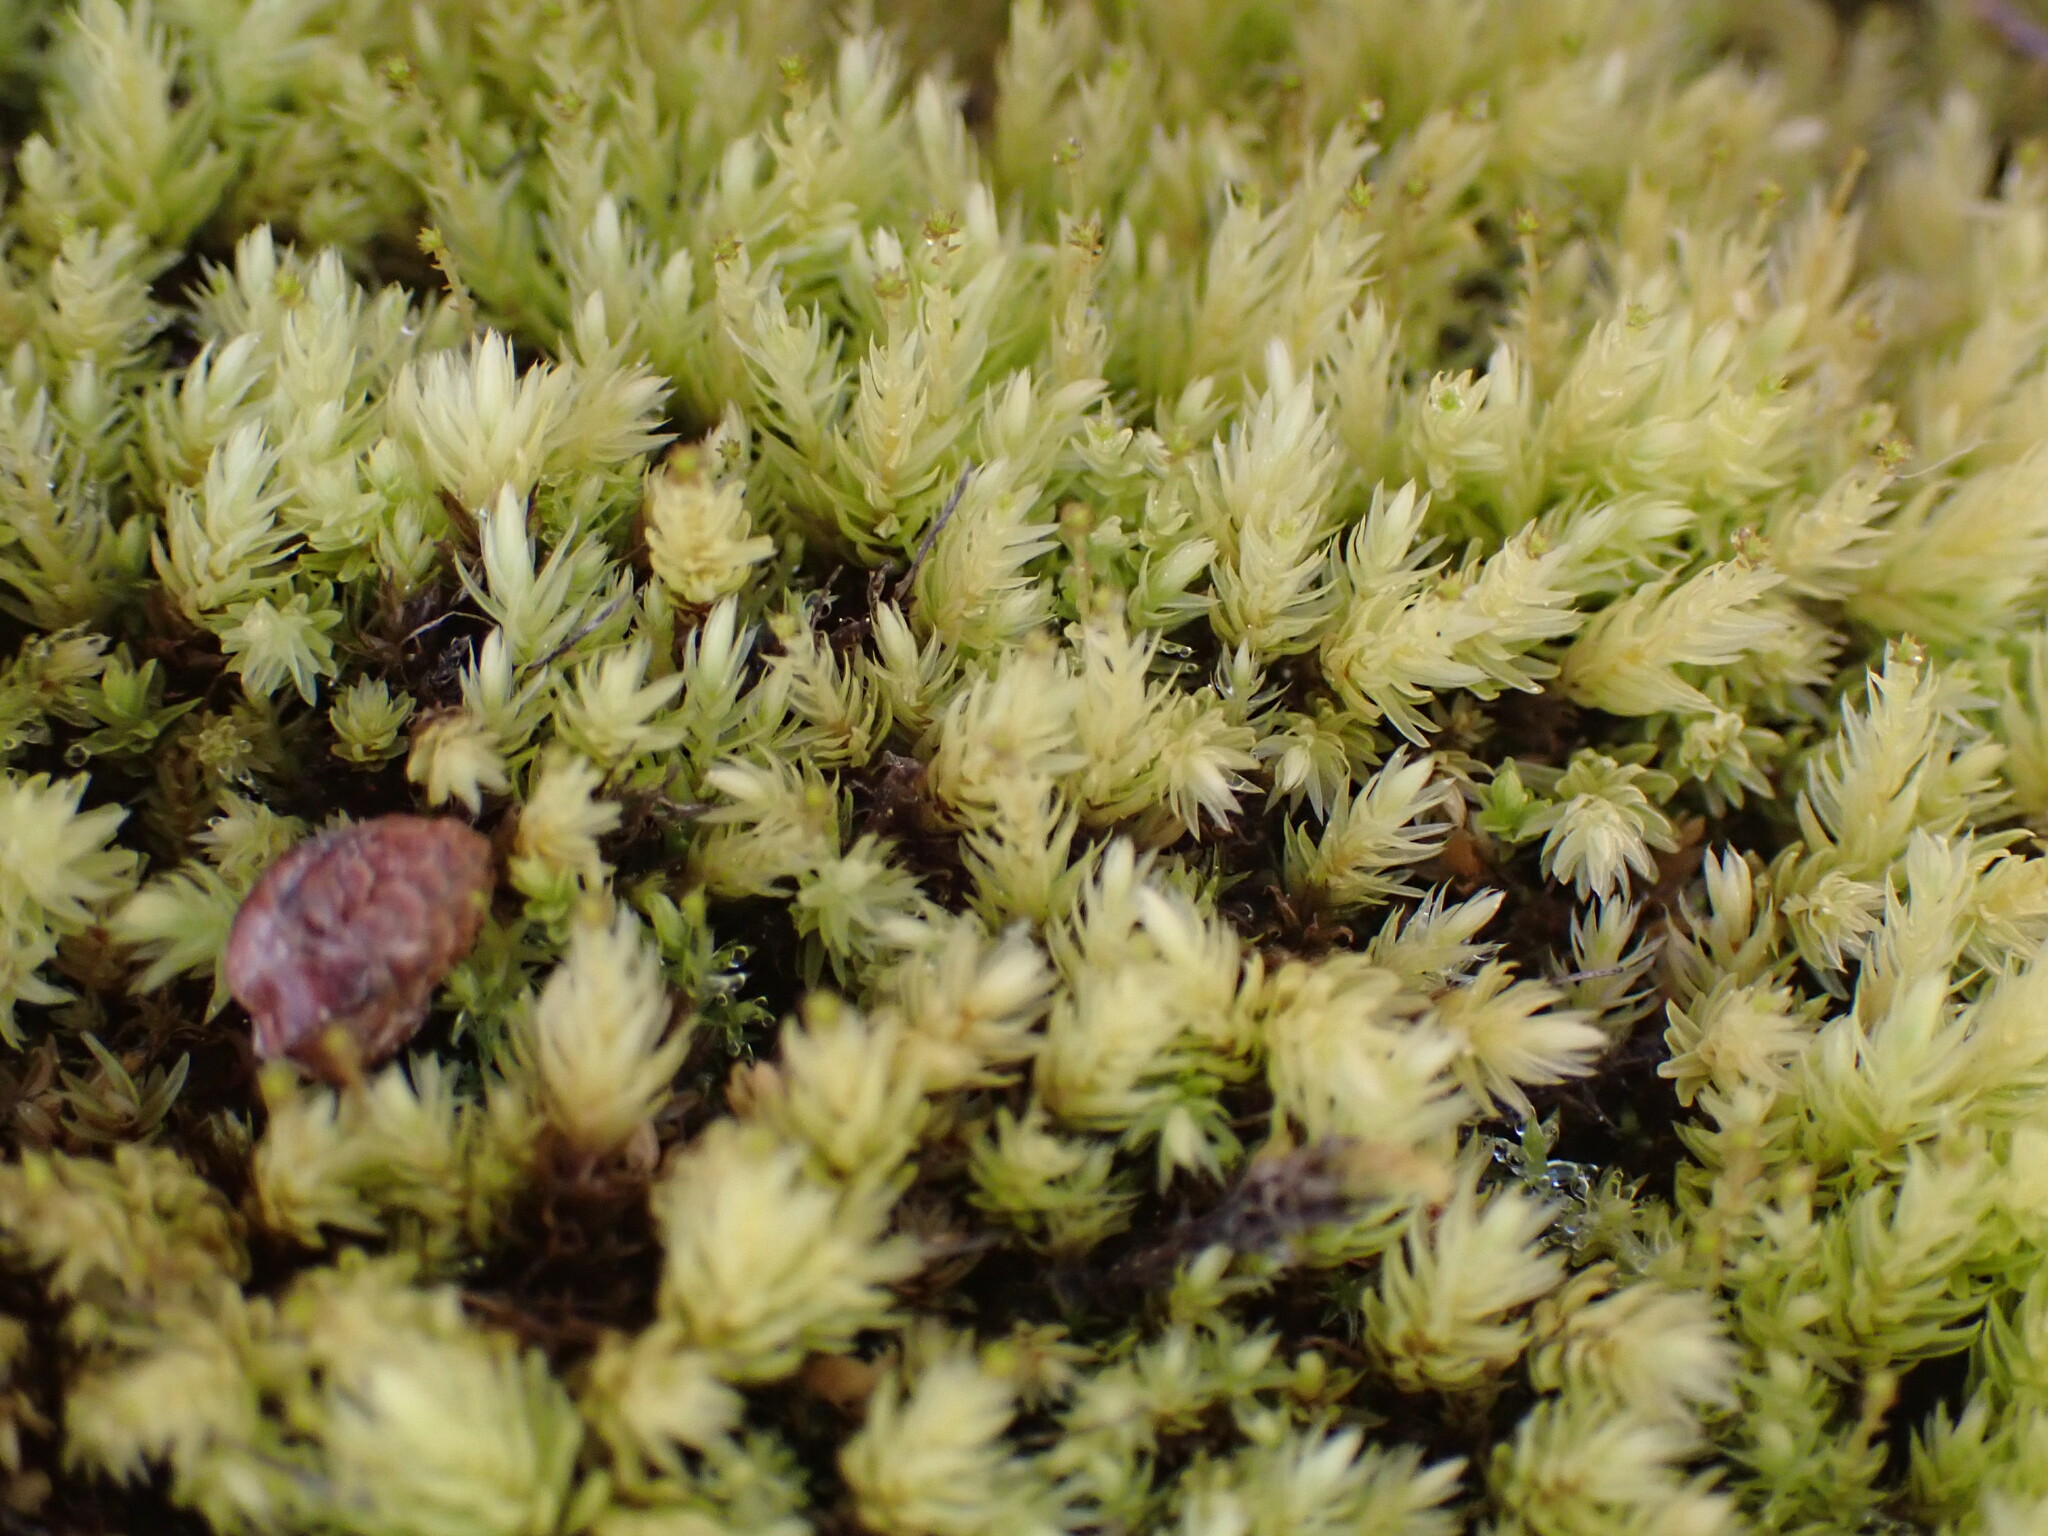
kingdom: Plantae
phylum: Bryophyta
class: Bryopsida
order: Aulacomniales
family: Aulacomniaceae
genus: Aulacomnium
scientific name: Aulacomnium palustre
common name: Bog groove-moss
